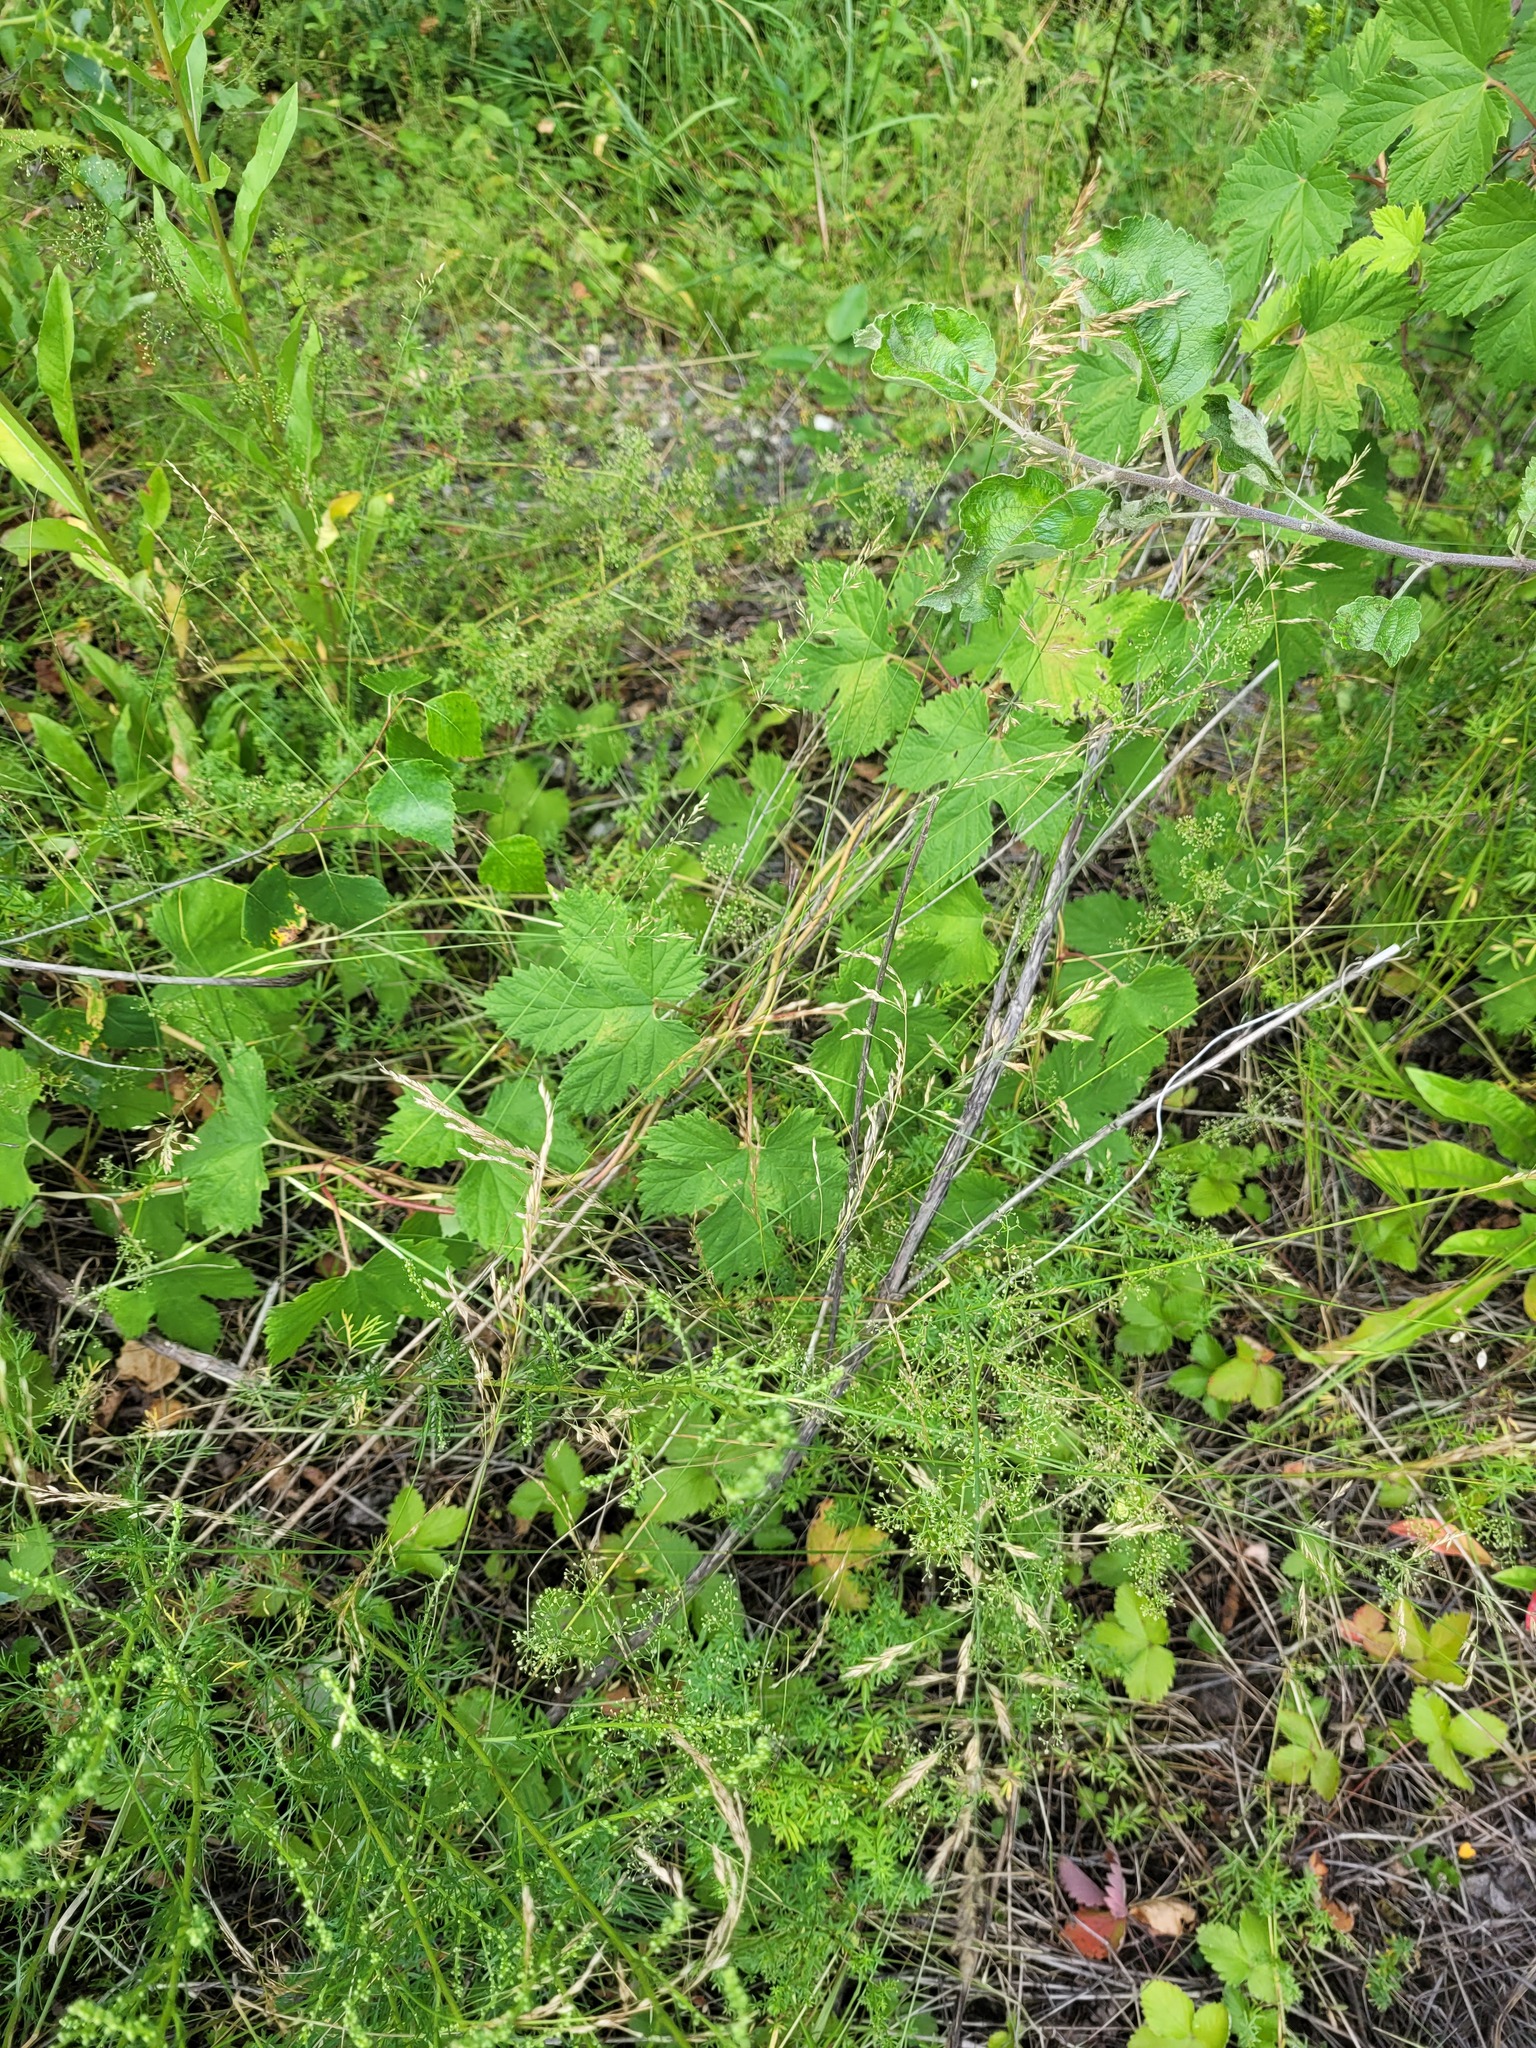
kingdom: Plantae
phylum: Tracheophyta
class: Magnoliopsida
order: Rosales
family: Cannabaceae
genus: Humulus
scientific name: Humulus lupulus
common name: Hop
